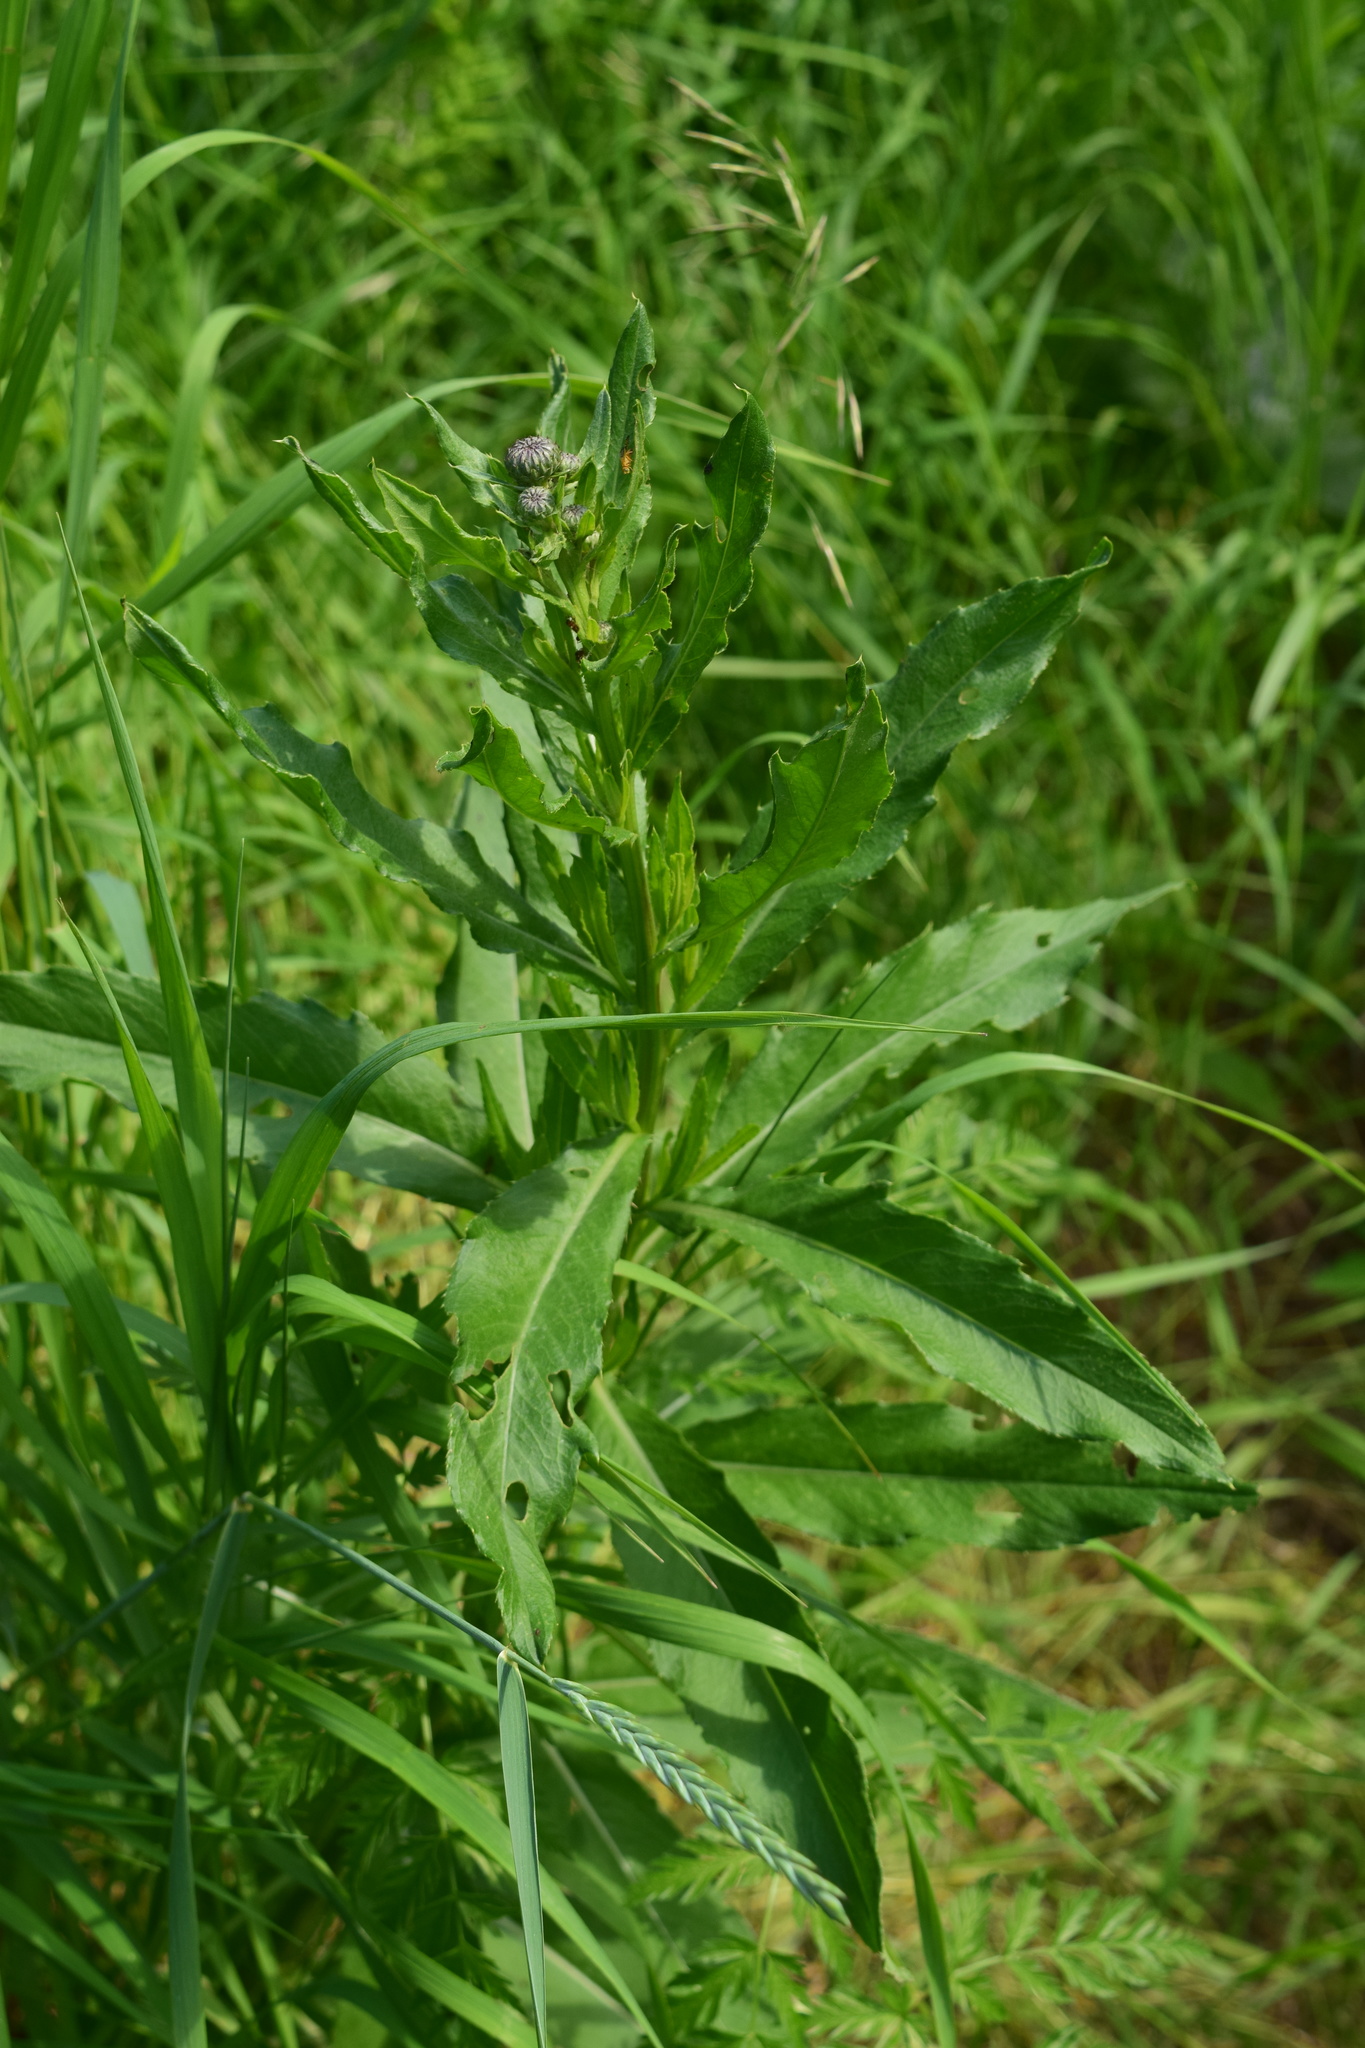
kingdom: Plantae
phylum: Tracheophyta
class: Magnoliopsida
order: Asterales
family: Asteraceae
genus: Cirsium
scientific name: Cirsium arvense
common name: Creeping thistle
